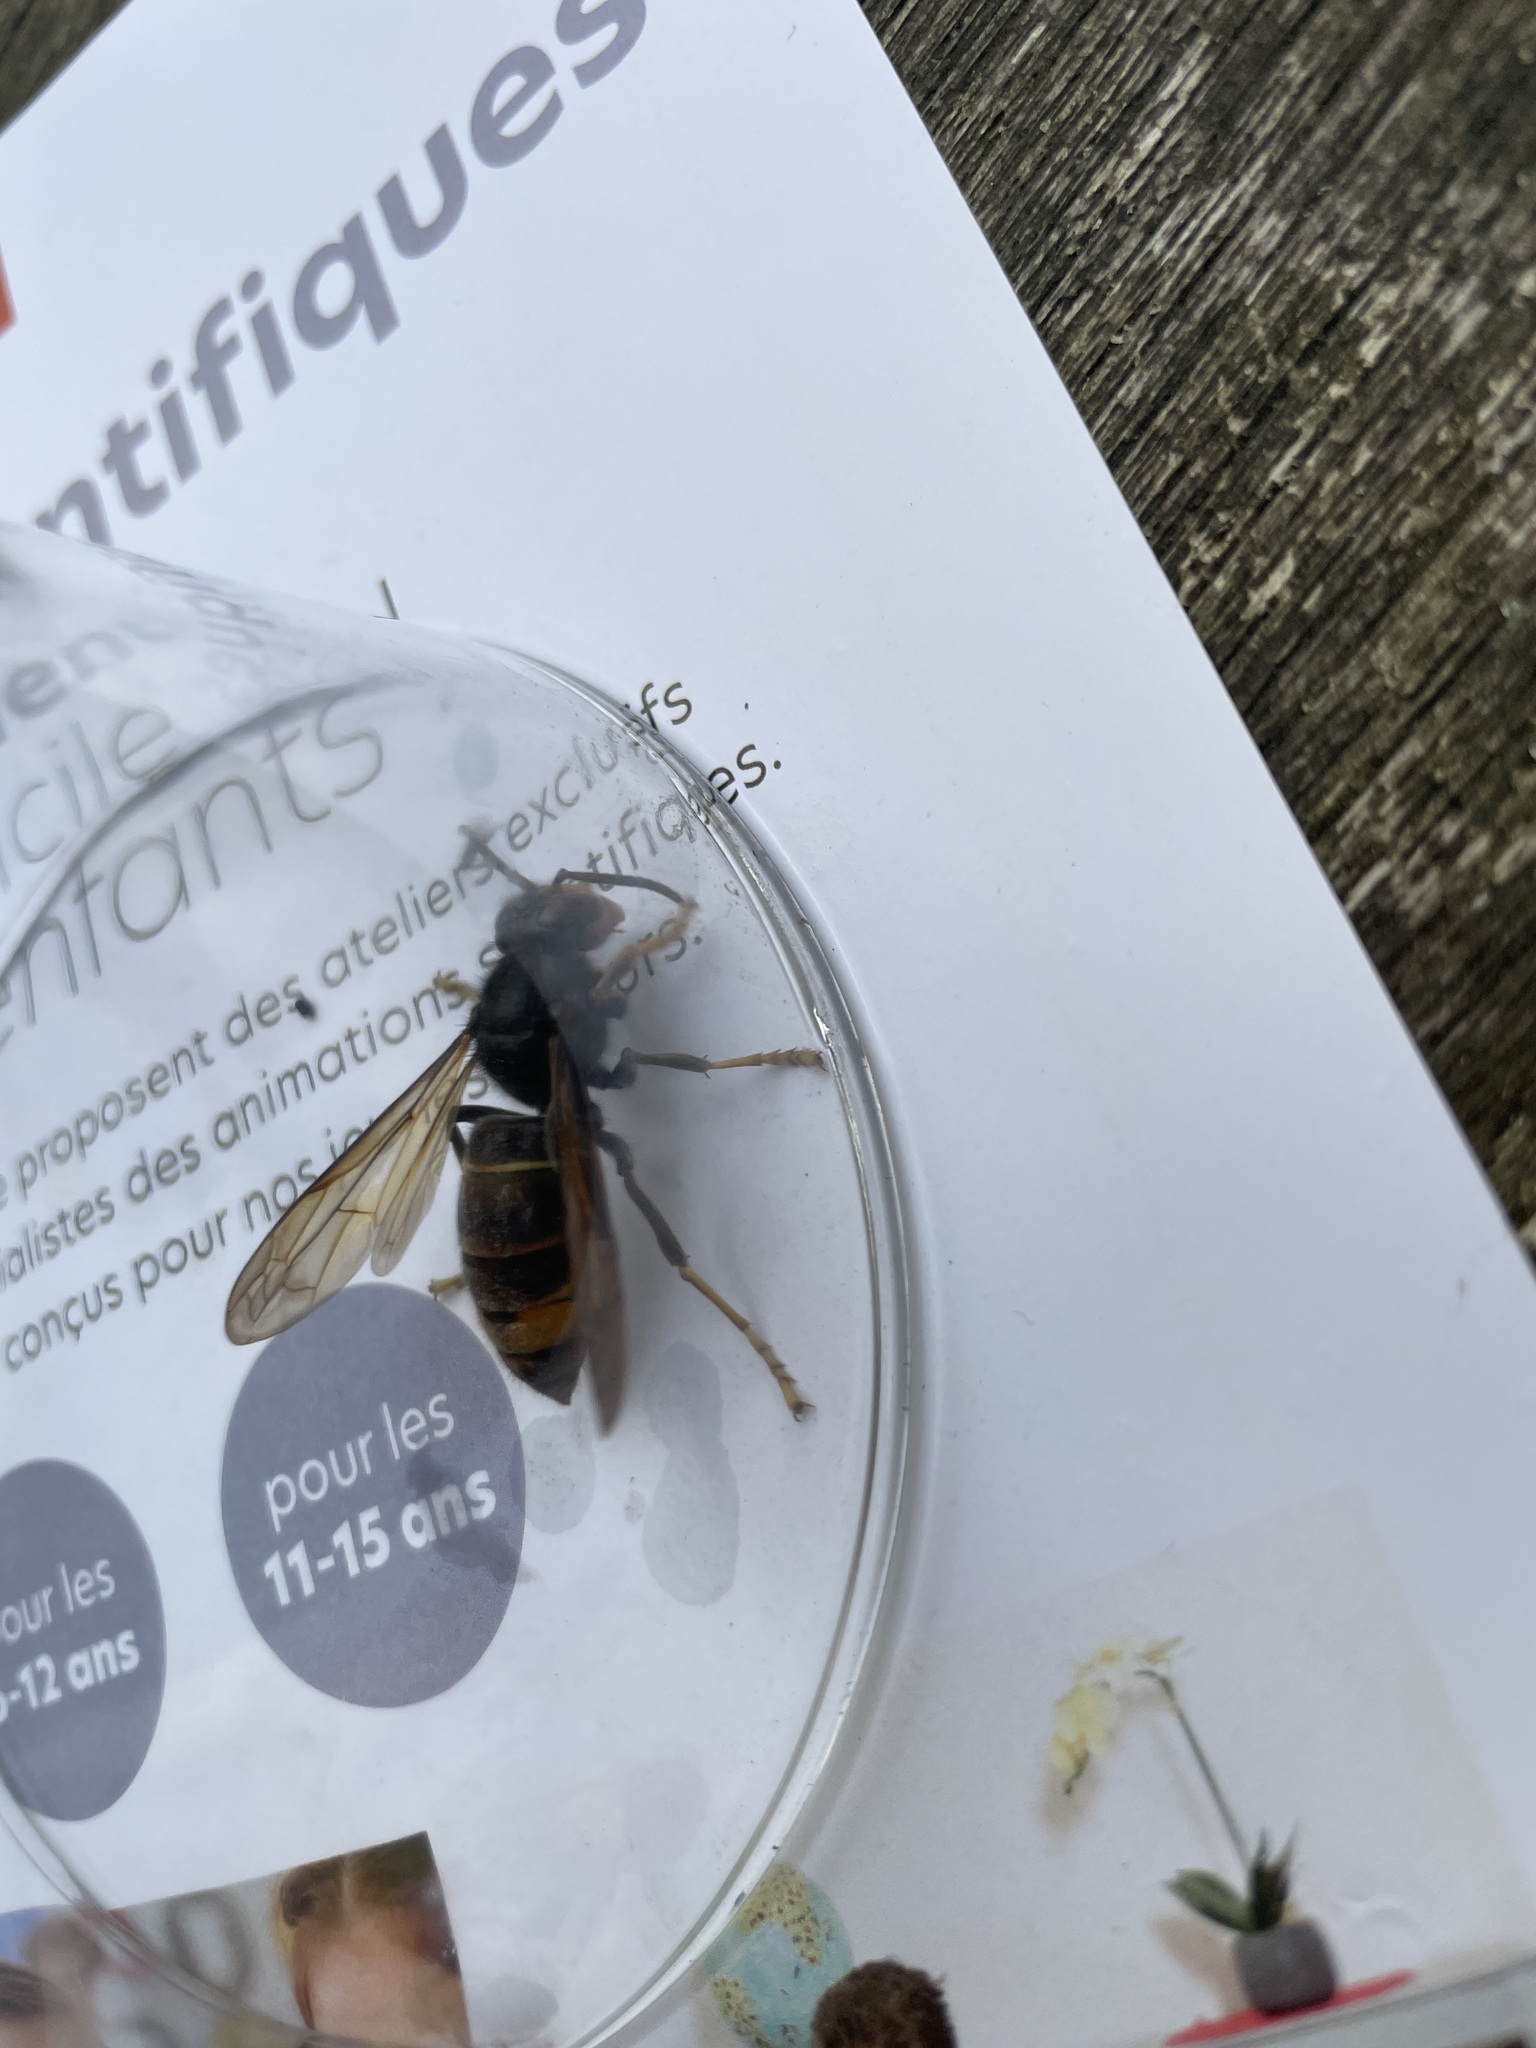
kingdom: Animalia
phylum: Arthropoda
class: Insecta
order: Hymenoptera
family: Vespidae
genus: Vespa
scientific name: Vespa velutina
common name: Asian hornet
